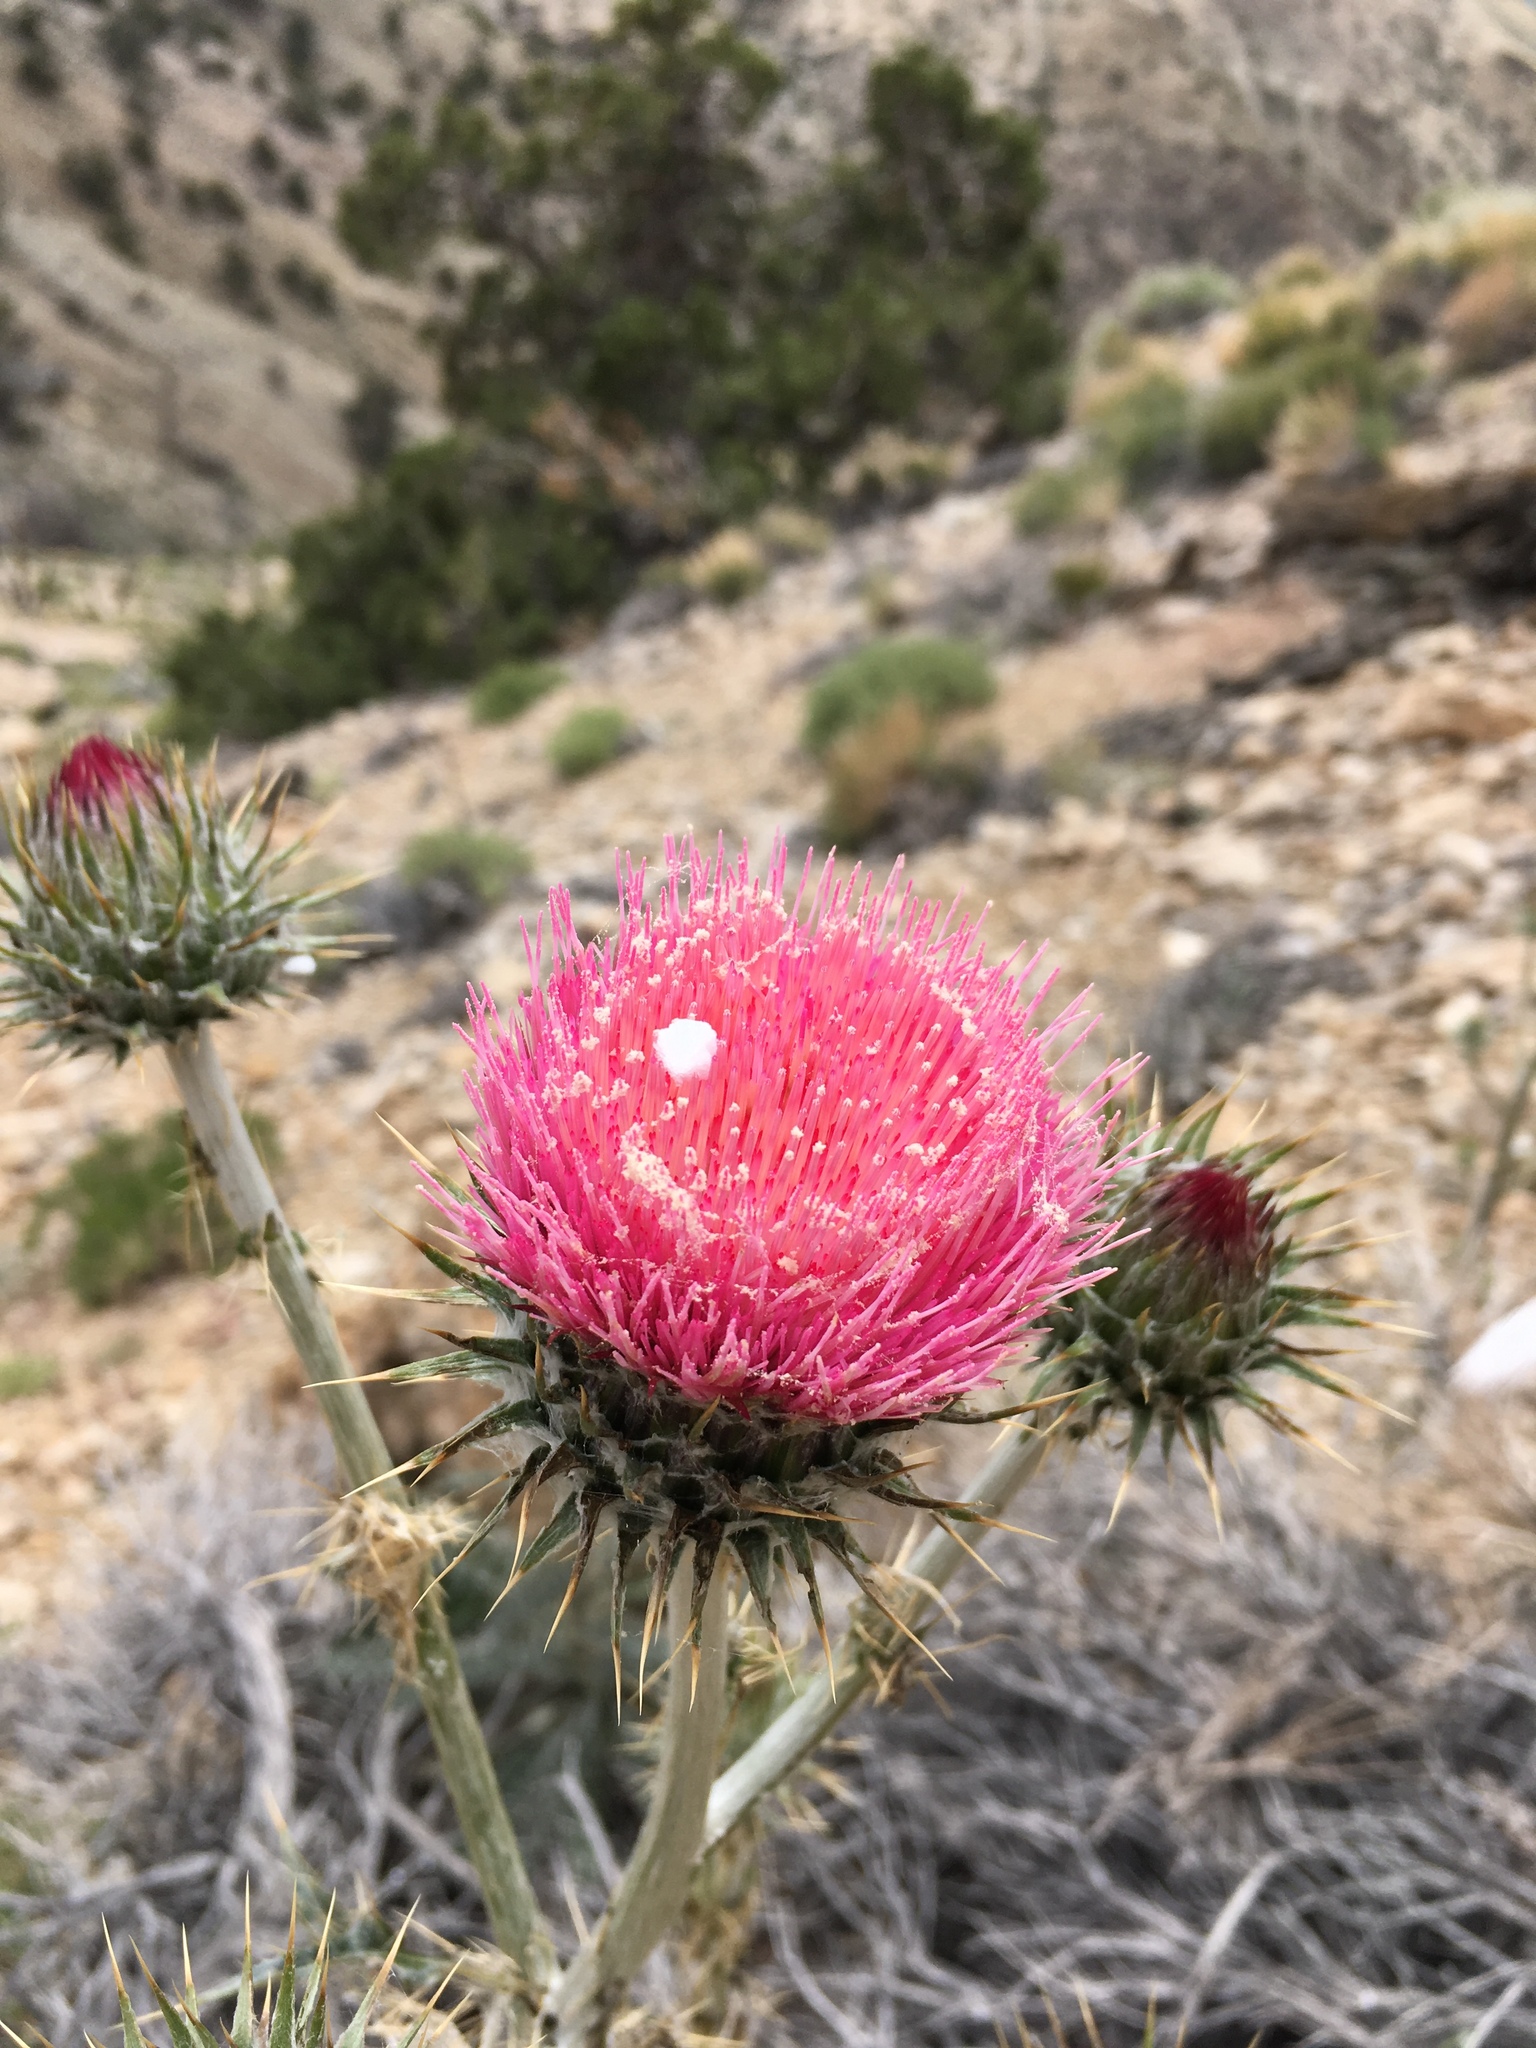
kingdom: Plantae
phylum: Tracheophyta
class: Magnoliopsida
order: Asterales
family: Asteraceae
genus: Cirsium
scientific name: Cirsium occidentale
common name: Western thistle
